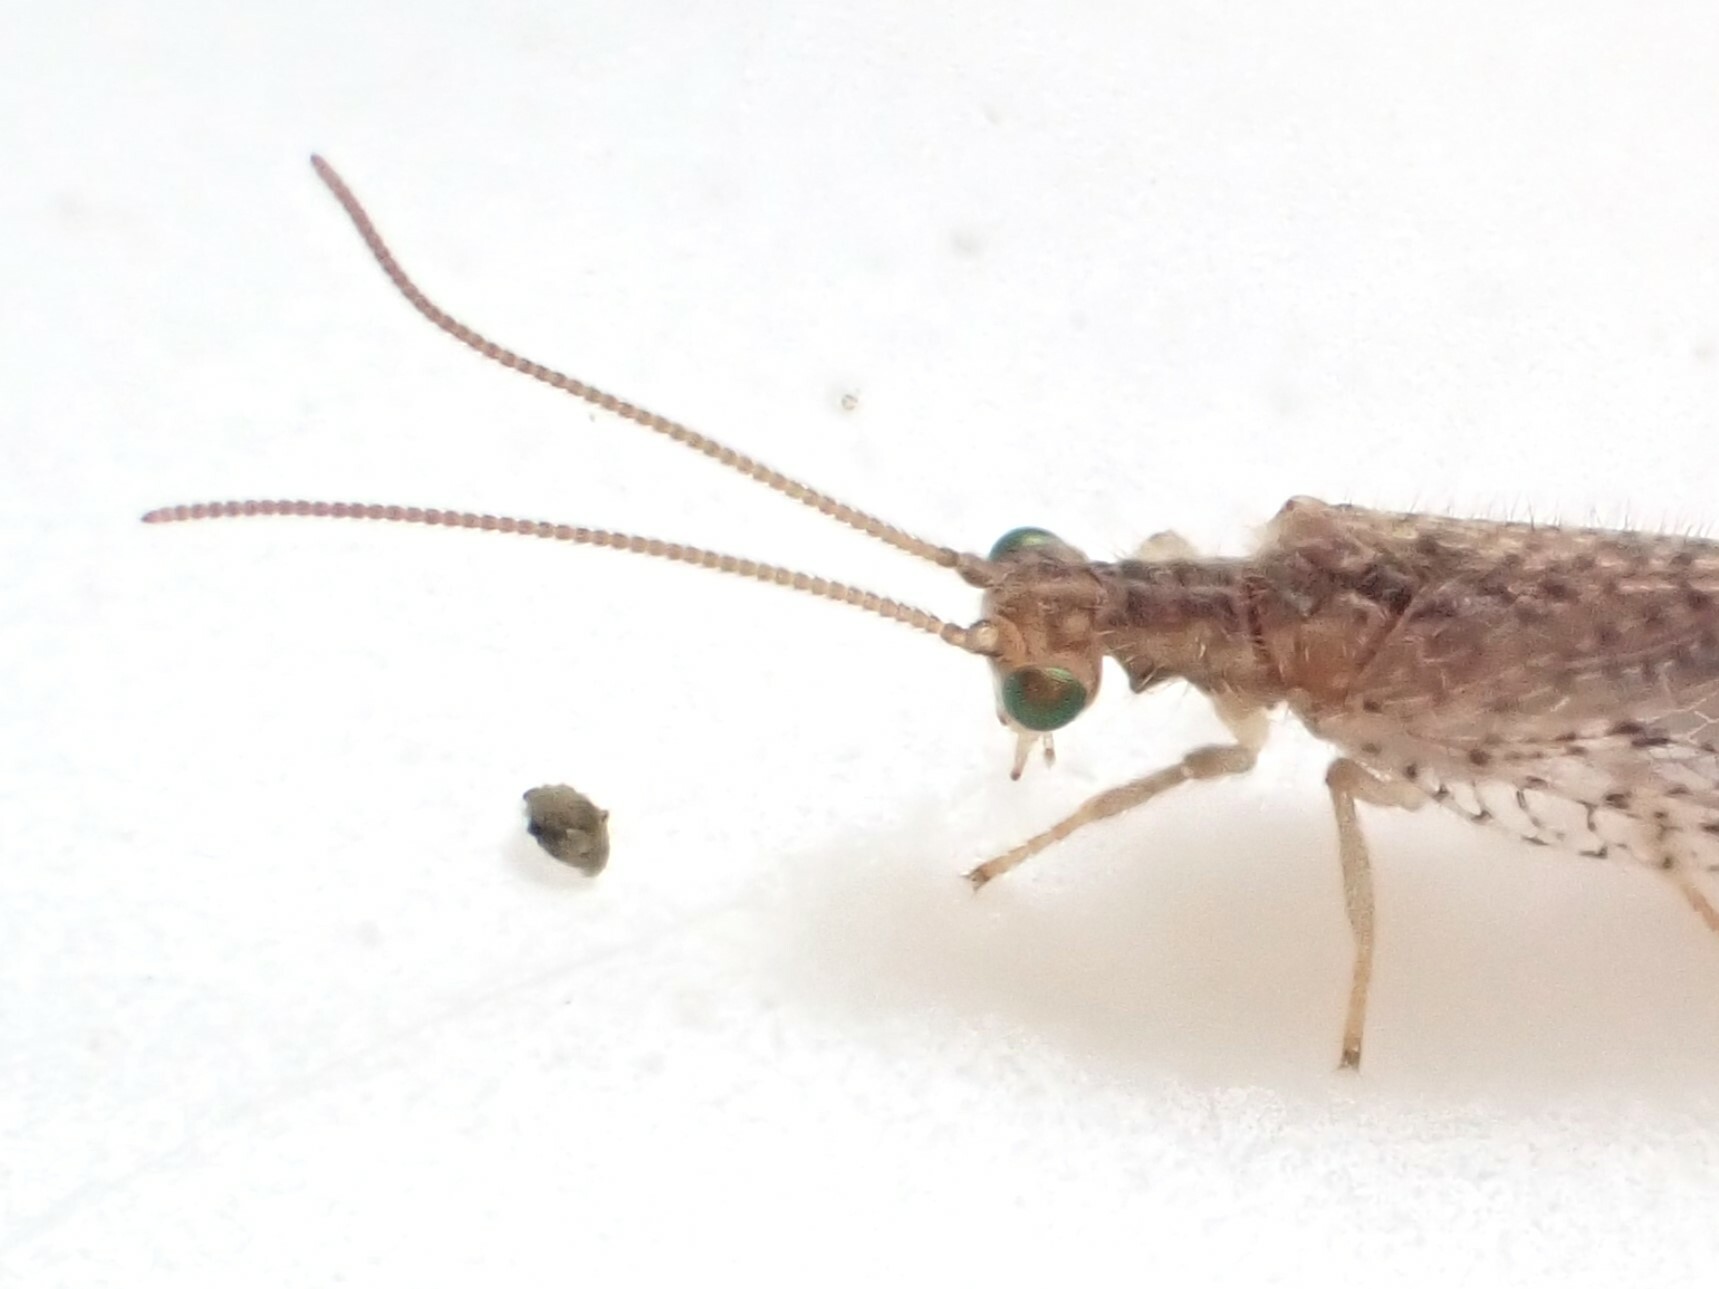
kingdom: Animalia
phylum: Arthropoda
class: Insecta
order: Neuroptera
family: Hemerobiidae
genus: Micromus
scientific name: Micromus tasmaniae
